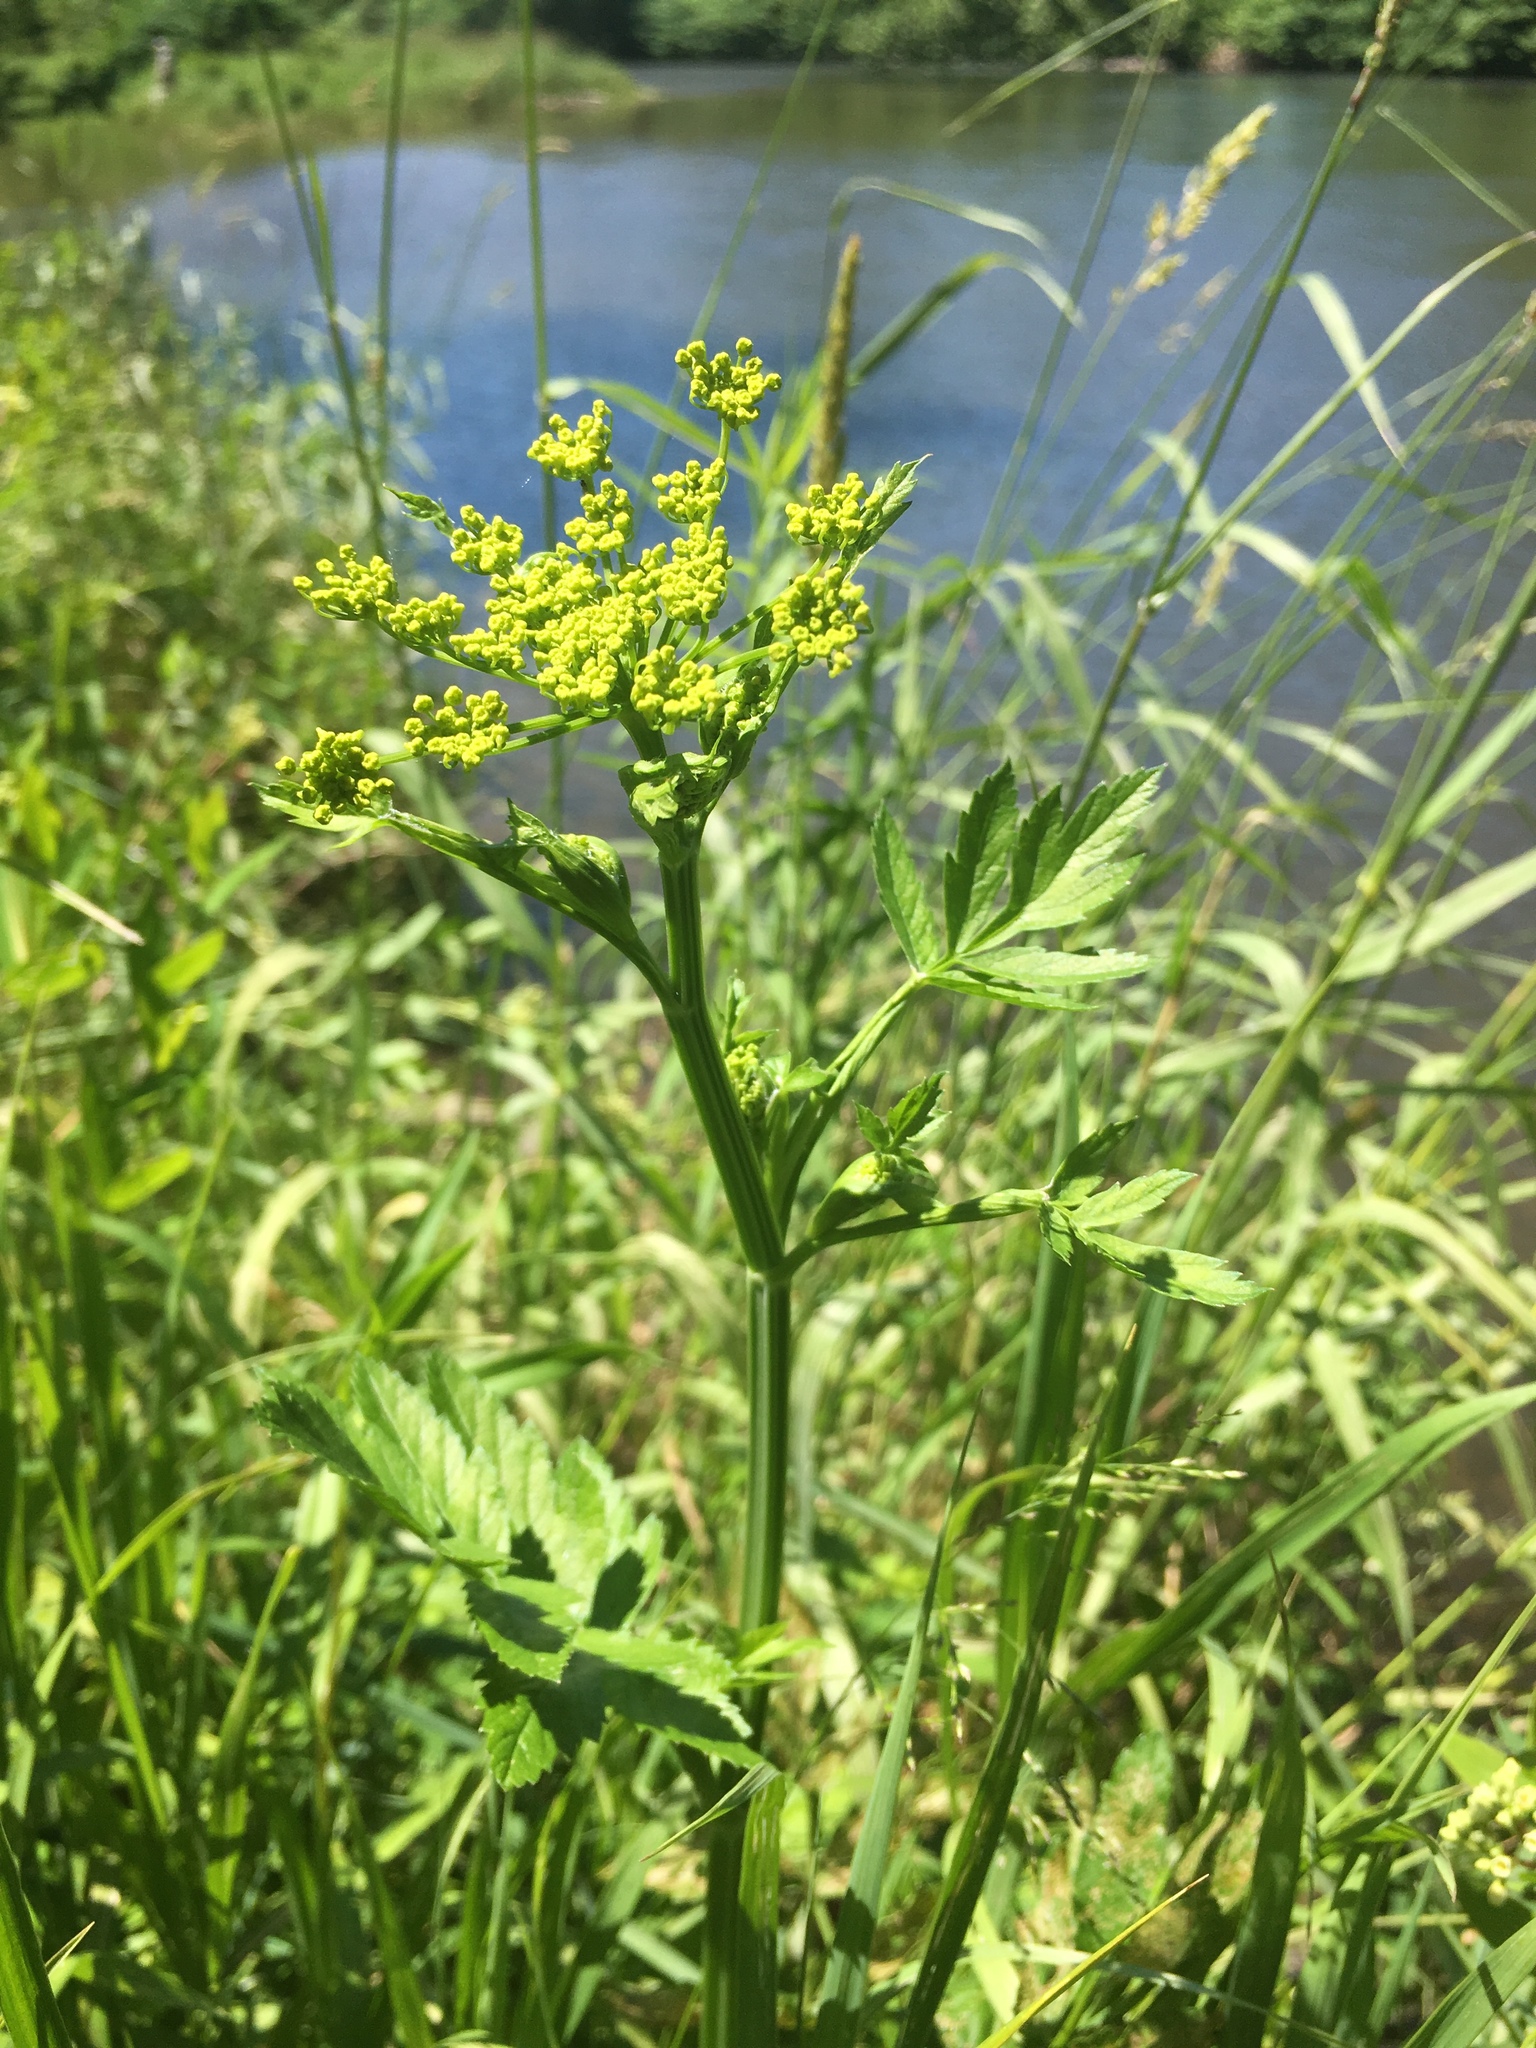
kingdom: Plantae
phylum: Tracheophyta
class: Magnoliopsida
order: Apiales
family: Apiaceae
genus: Pastinaca
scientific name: Pastinaca sativa
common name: Wild parsnip
